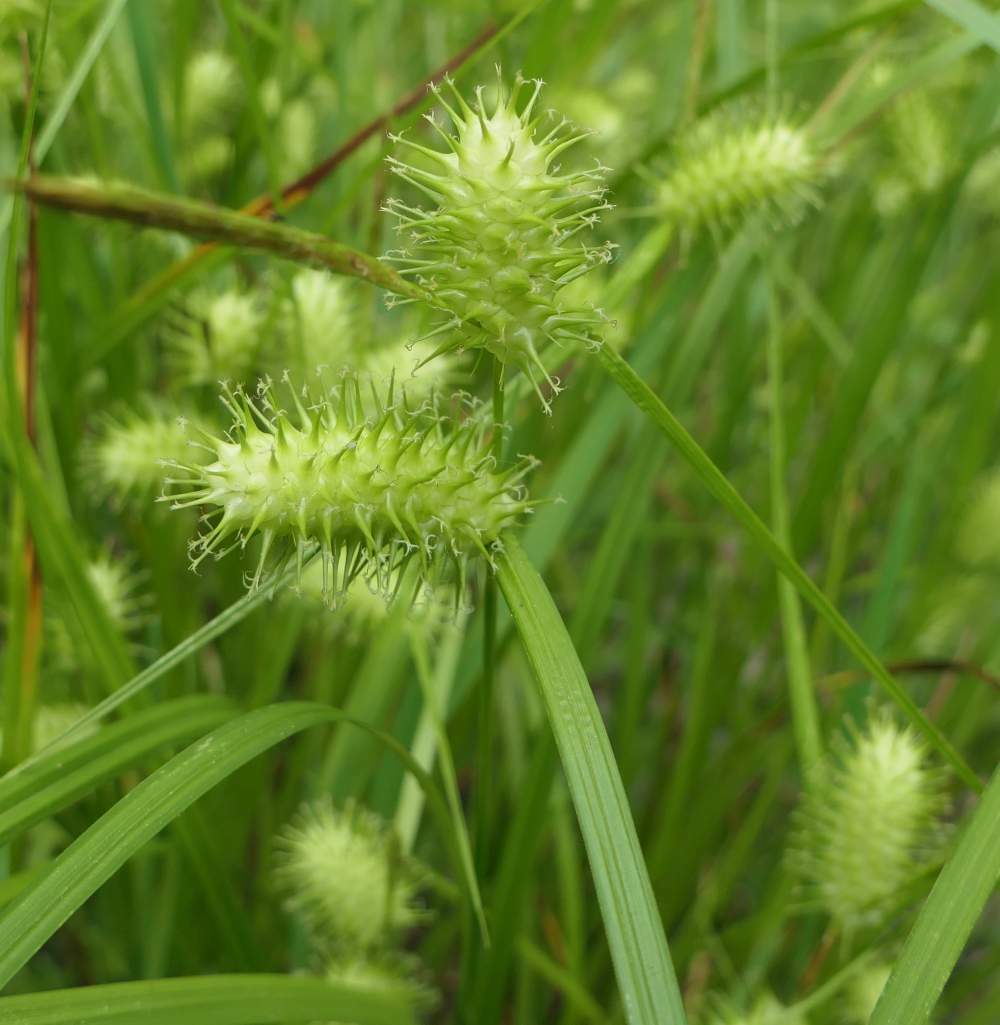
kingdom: Plantae
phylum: Tracheophyta
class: Liliopsida
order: Poales
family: Cyperaceae
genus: Carex
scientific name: Carex lurida
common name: Sallow sedge
